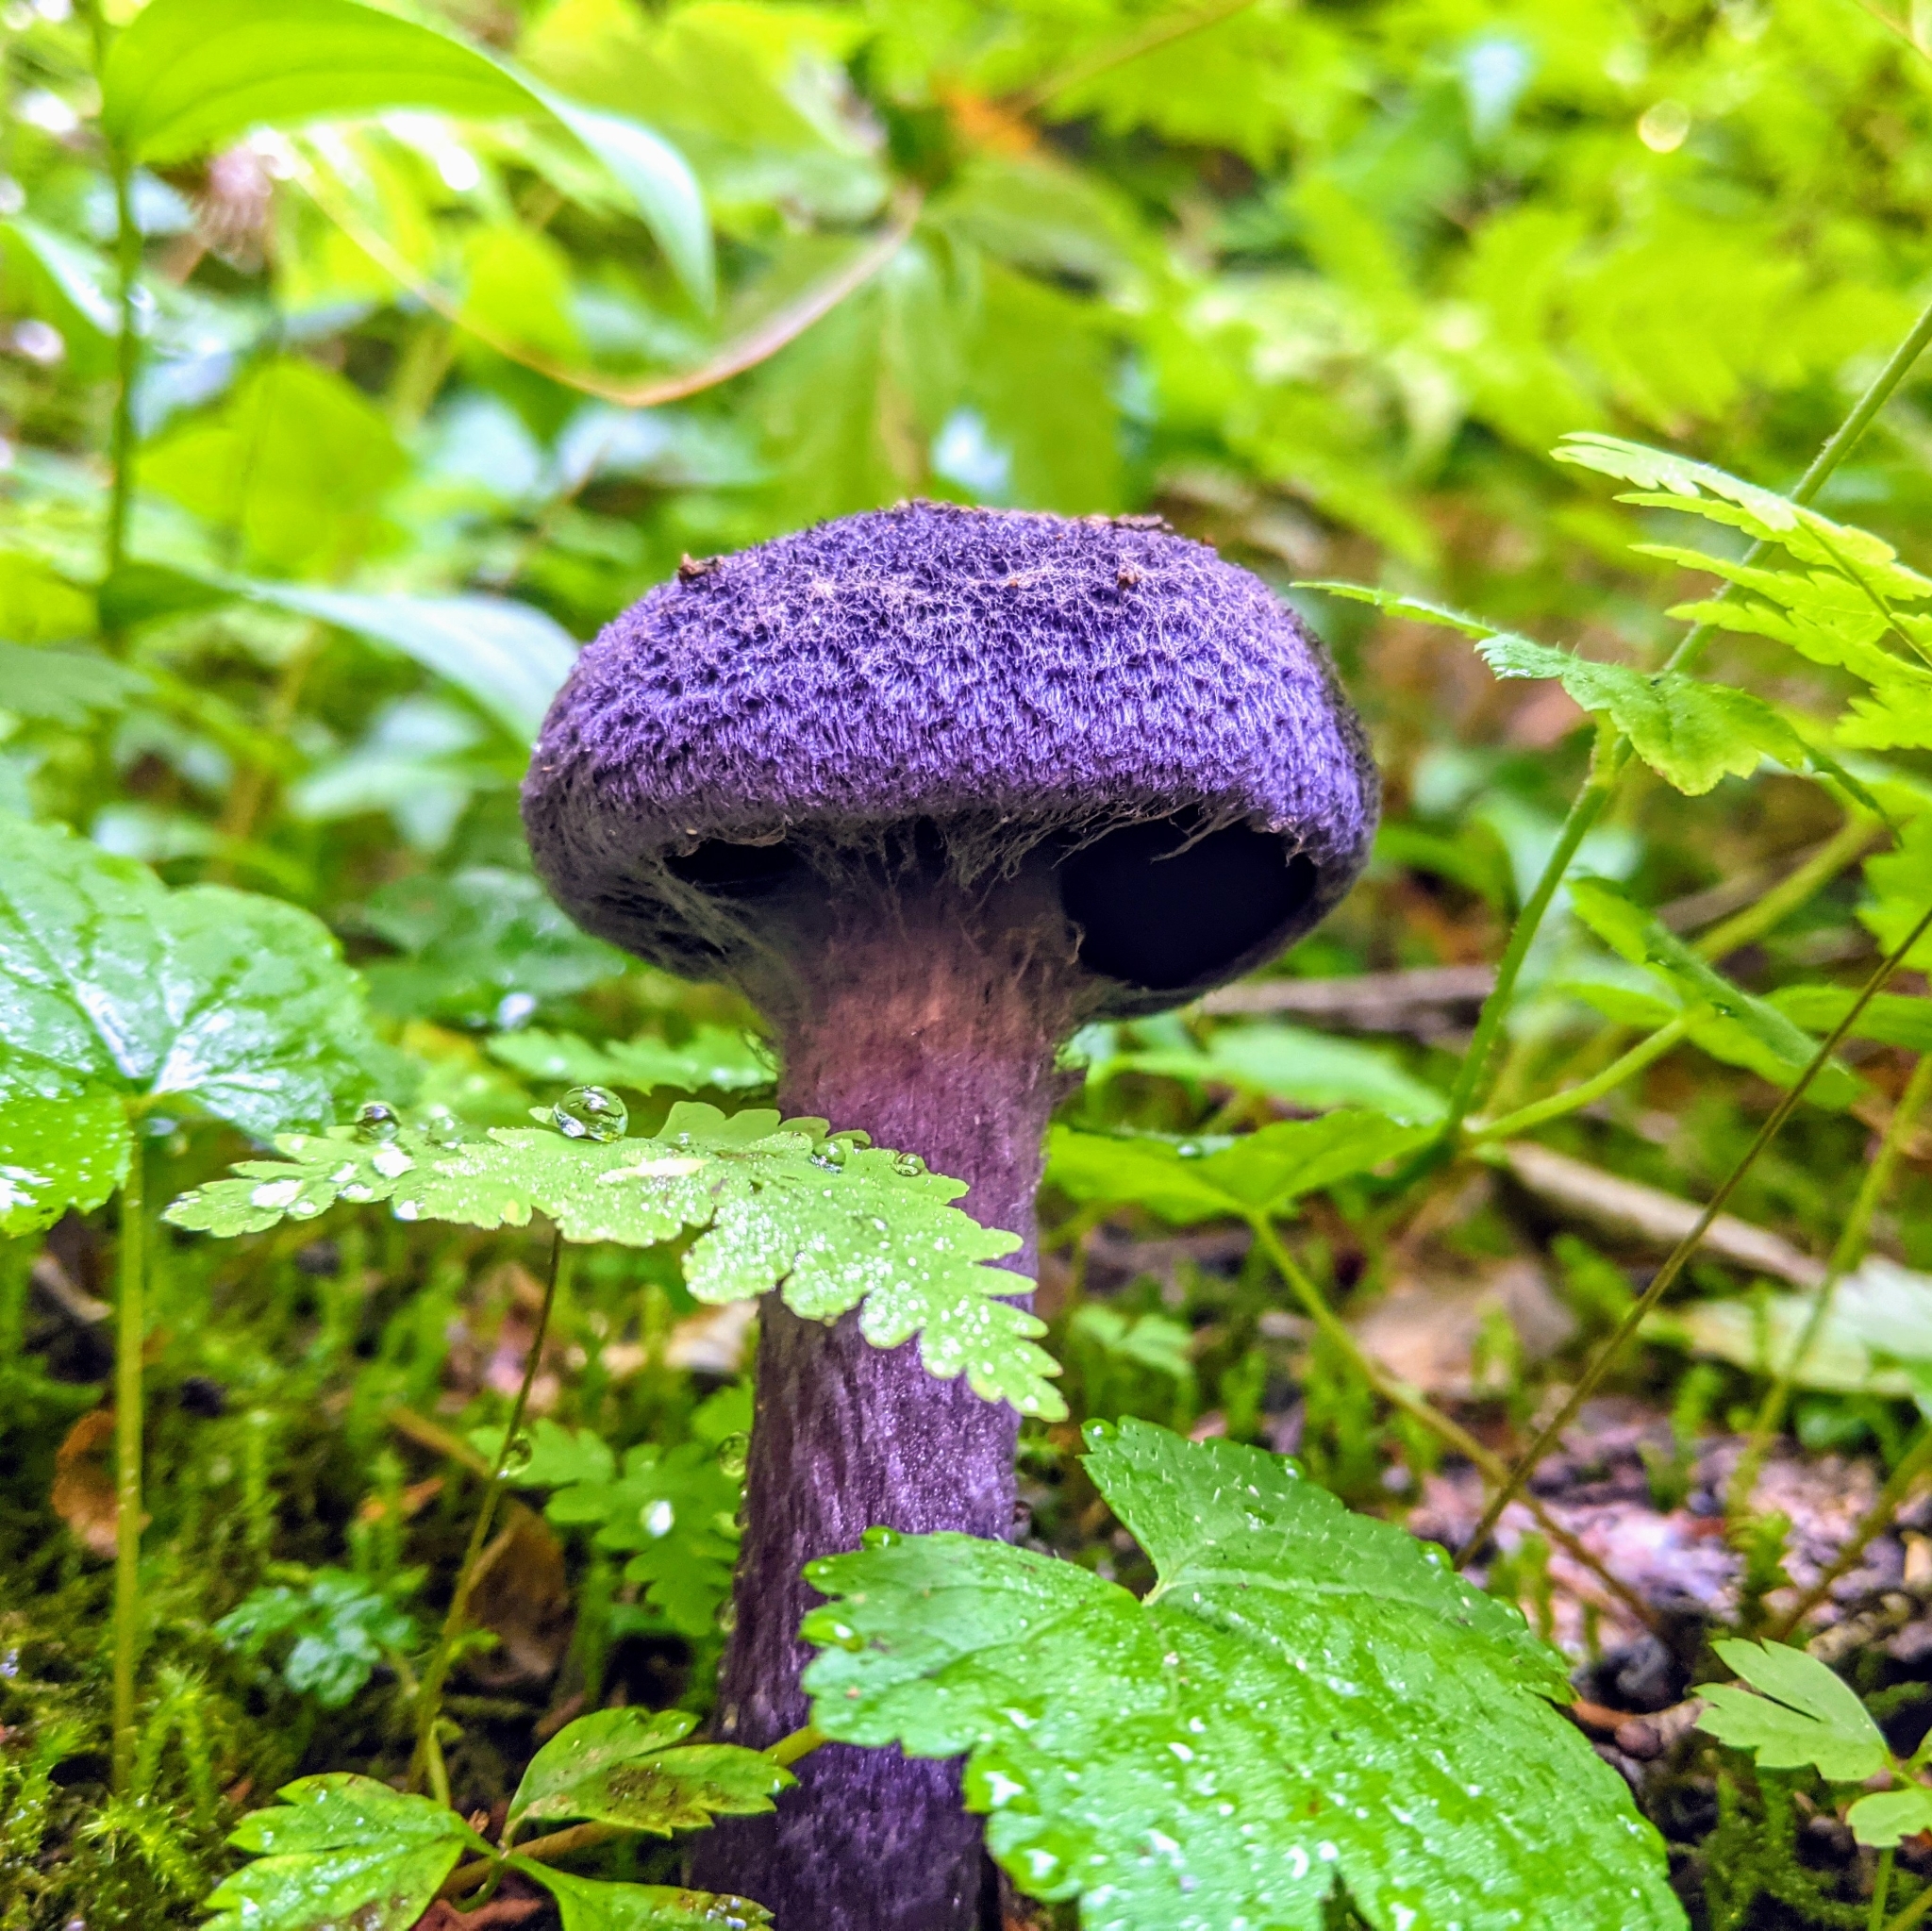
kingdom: Fungi
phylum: Basidiomycota
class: Agaricomycetes
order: Agaricales
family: Cortinariaceae
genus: Cortinarius
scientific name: Cortinarius violaceus
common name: Violet webcap
